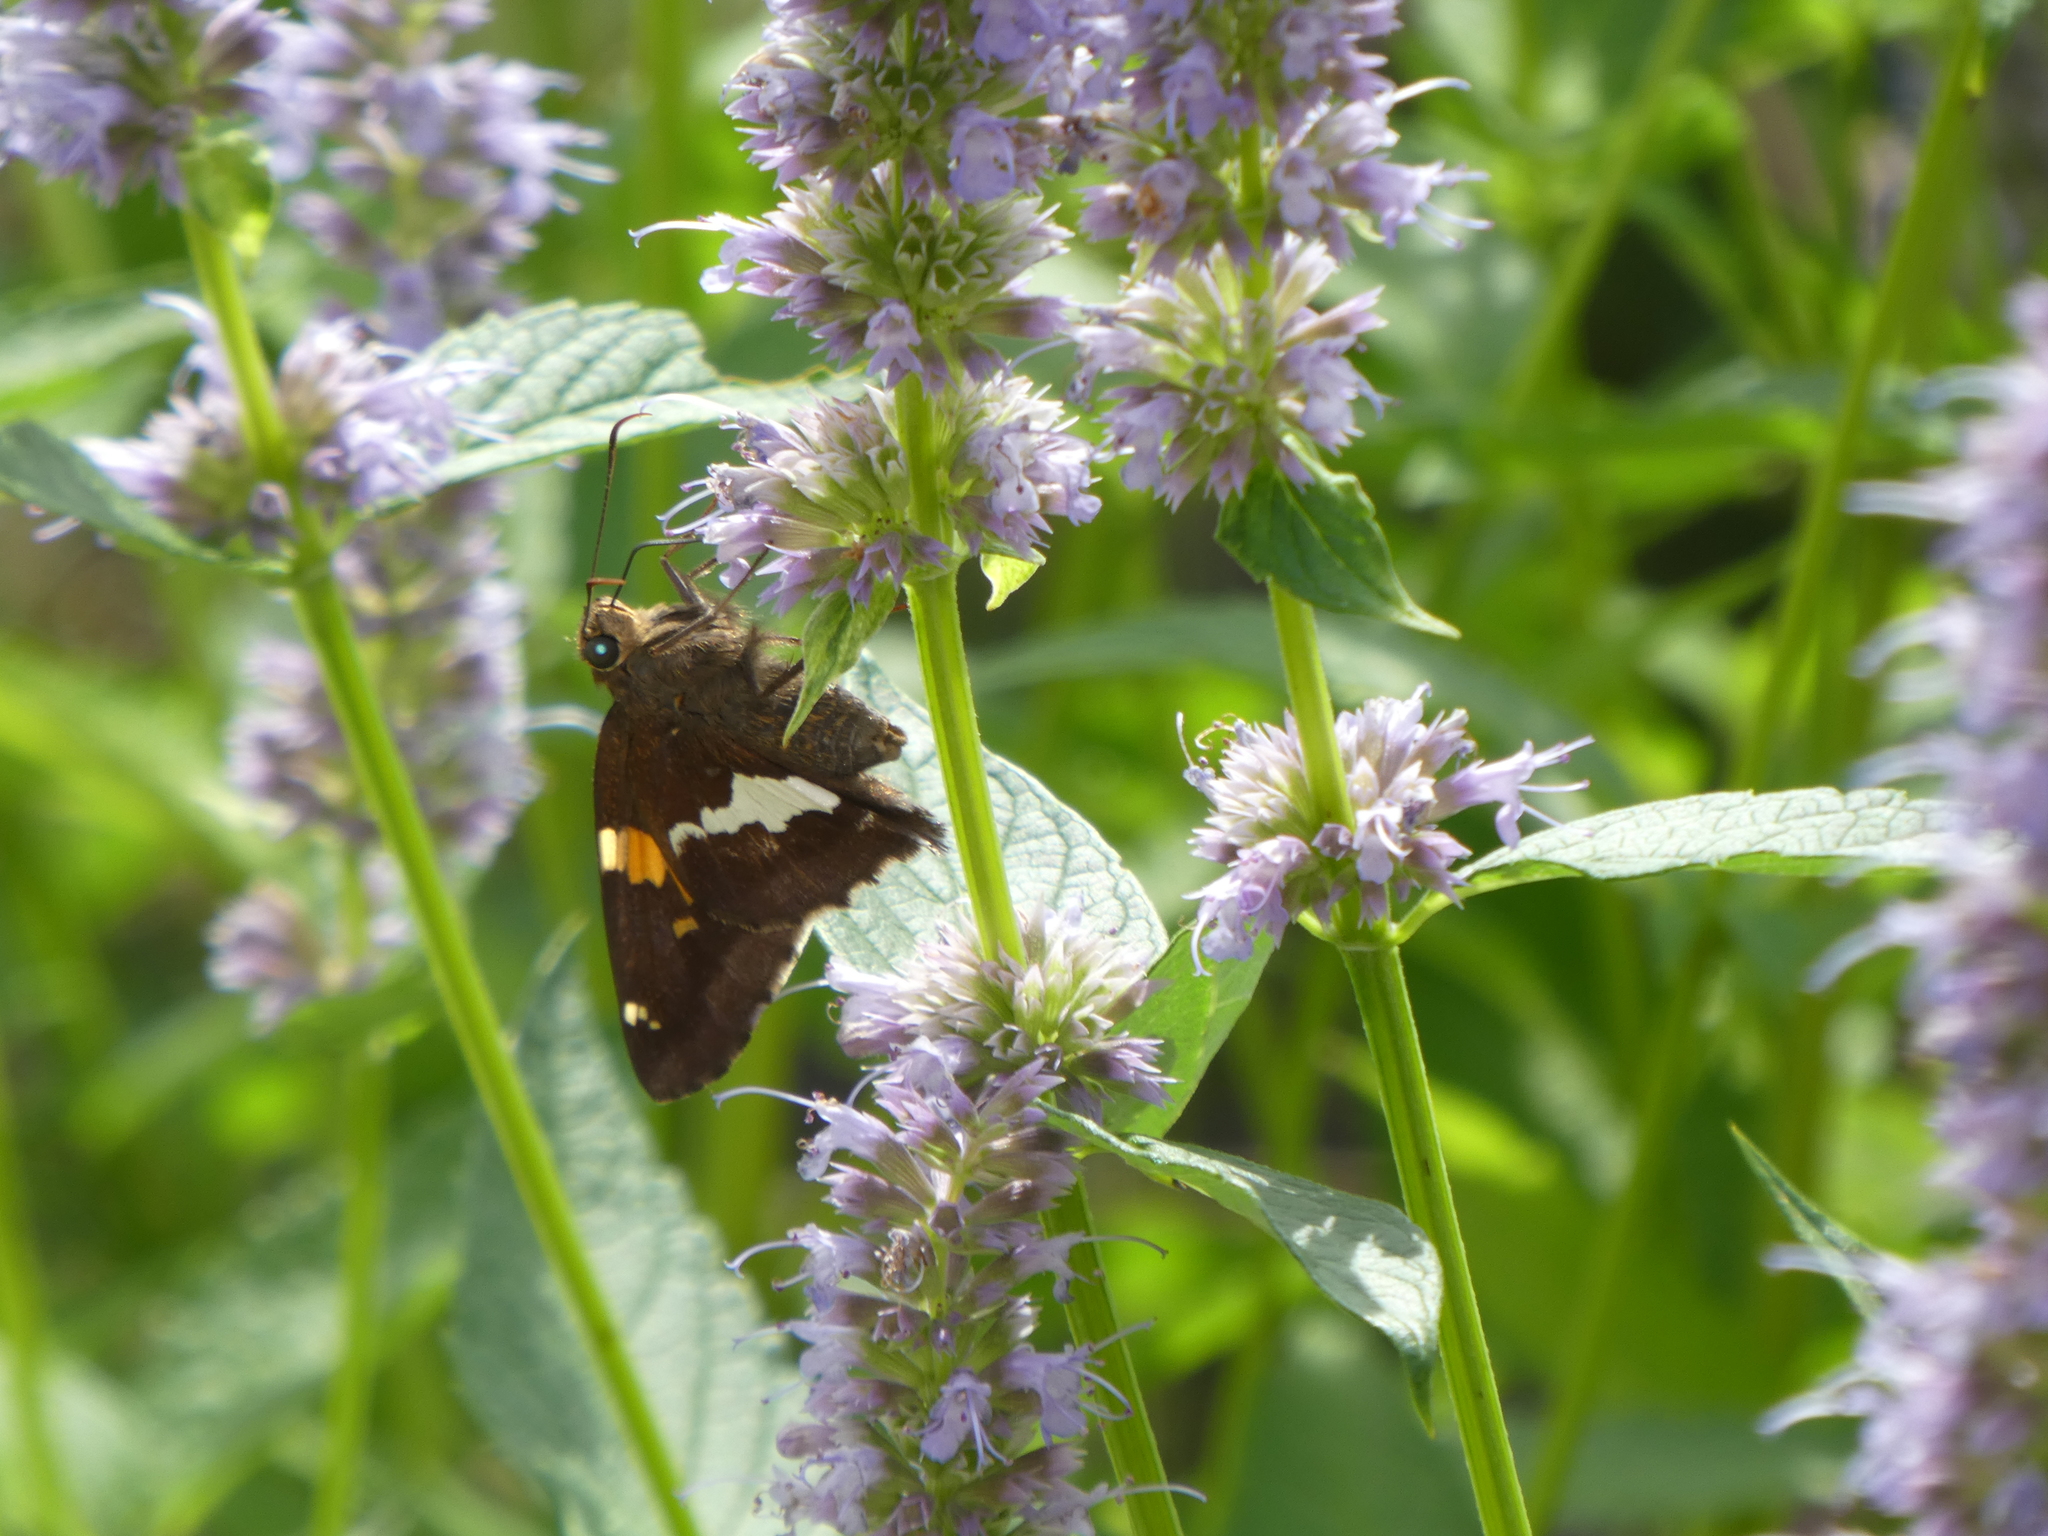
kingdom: Animalia
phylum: Arthropoda
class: Insecta
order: Lepidoptera
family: Hesperiidae
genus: Epargyreus
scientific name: Epargyreus clarus
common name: Silver-spotted skipper
